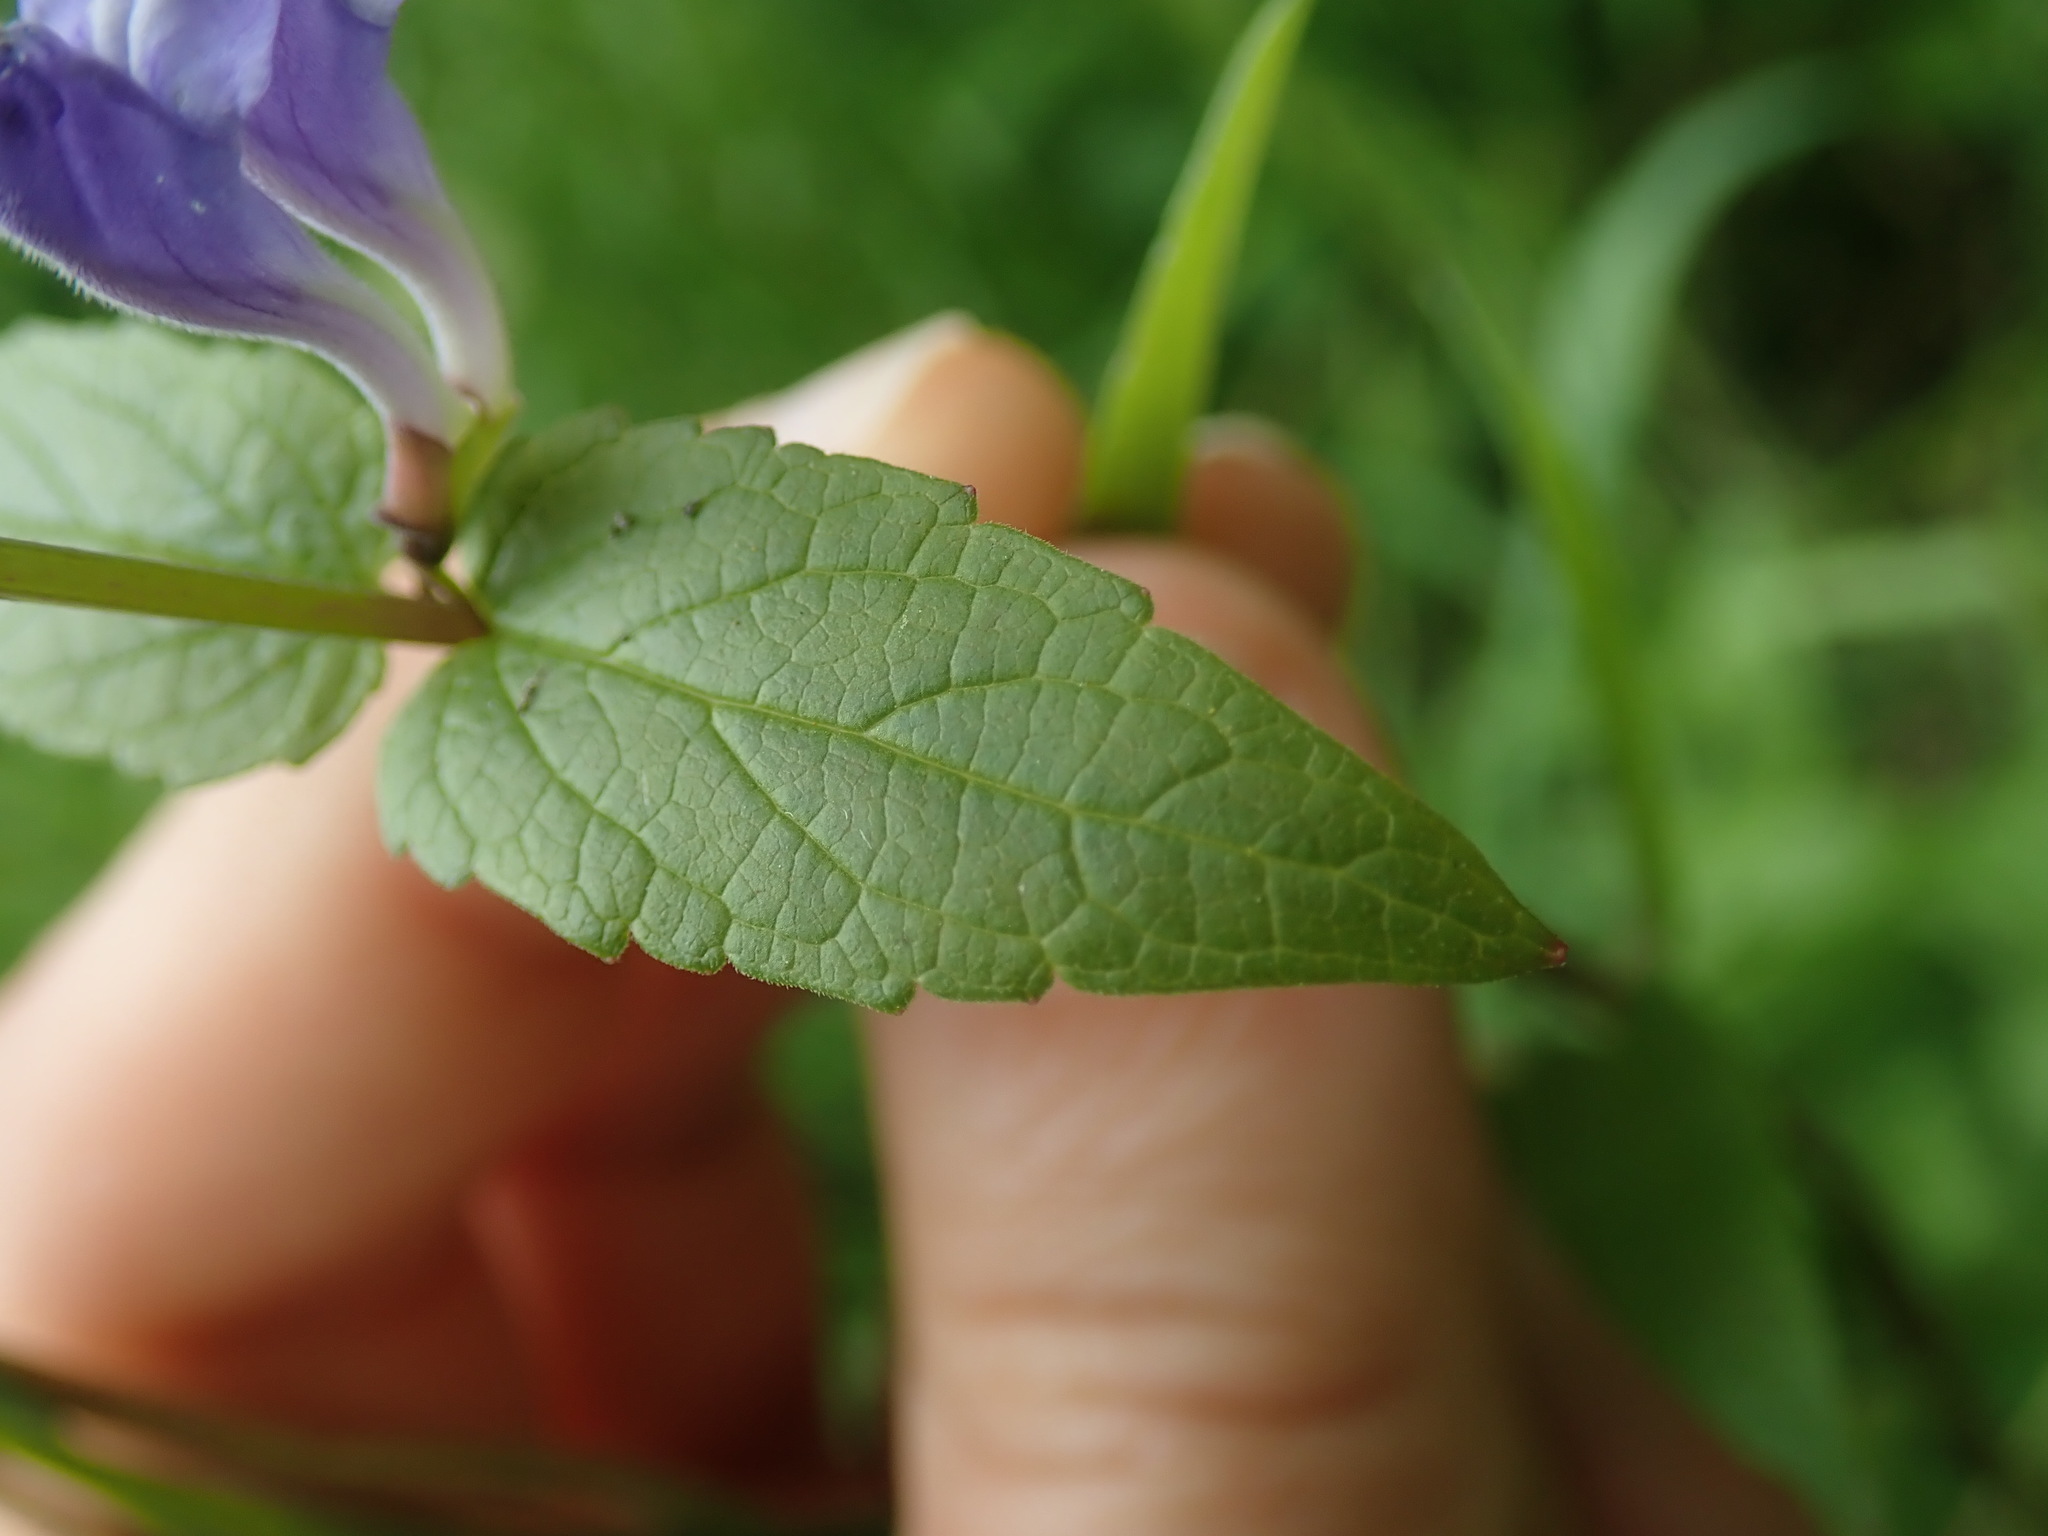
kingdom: Plantae
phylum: Tracheophyta
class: Magnoliopsida
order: Lamiales
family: Lamiaceae
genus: Scutellaria
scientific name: Scutellaria galericulata
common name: Skullcap
